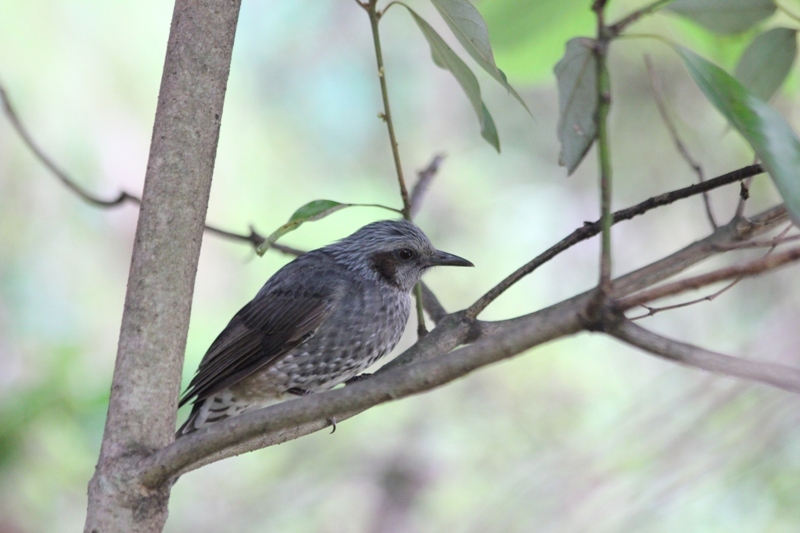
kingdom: Animalia
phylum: Chordata
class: Aves
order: Passeriformes
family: Pycnonotidae
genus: Hypsipetes
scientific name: Hypsipetes amaurotis
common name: Brown-eared bulbul
